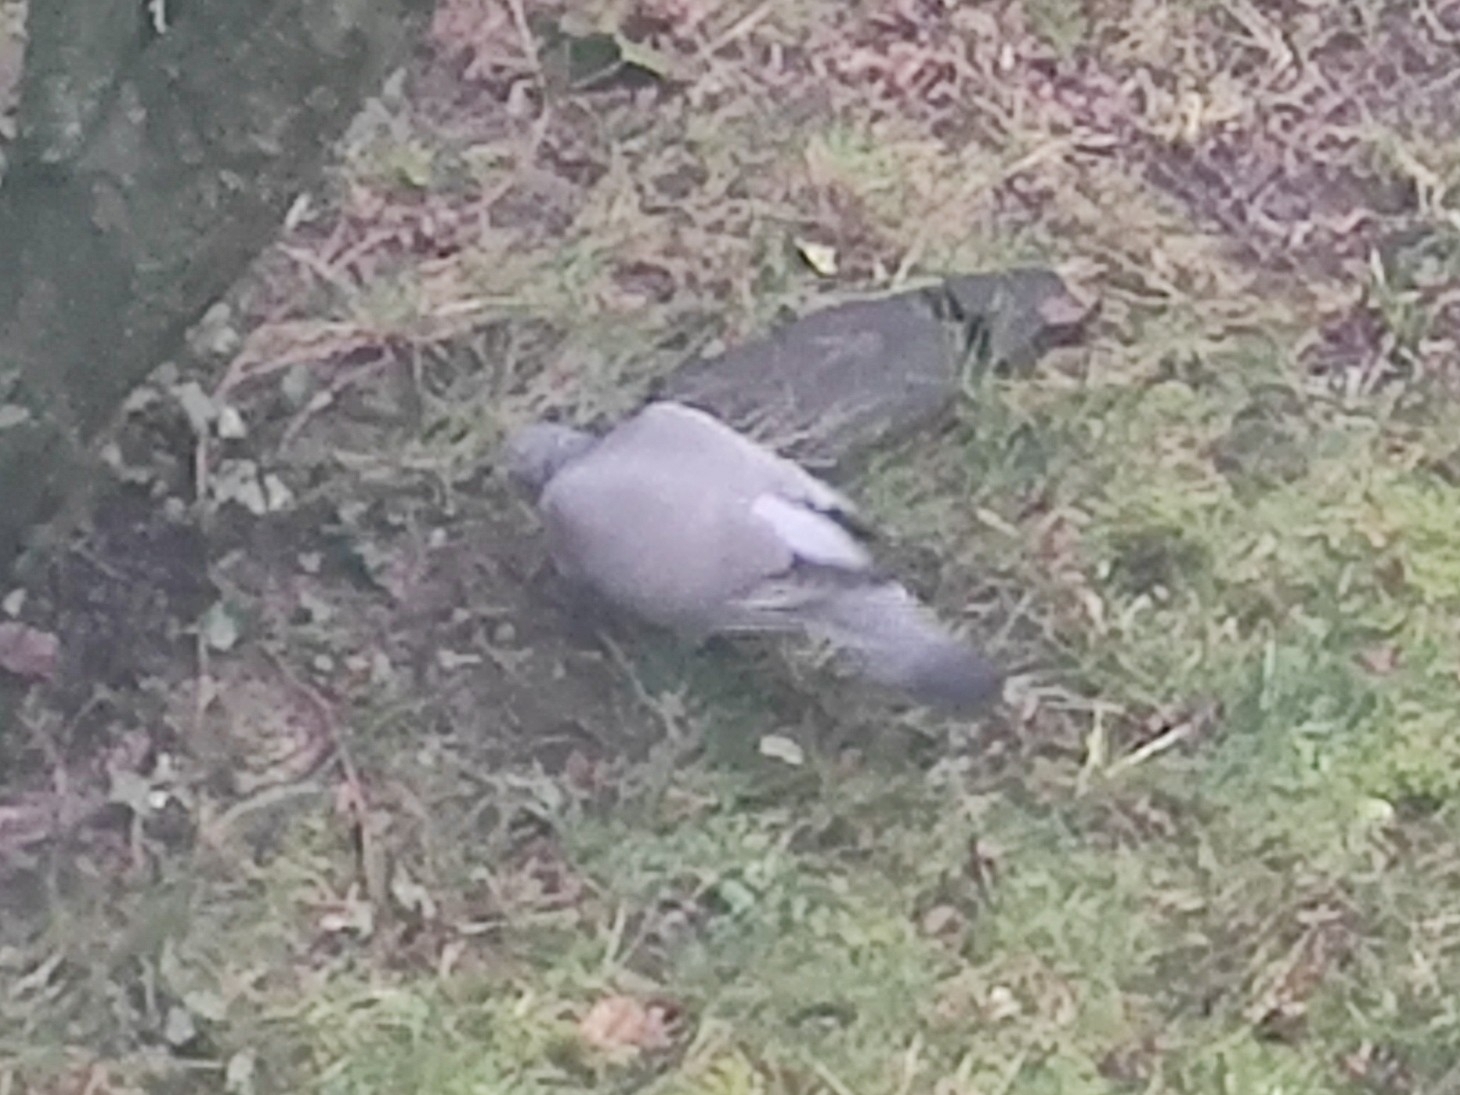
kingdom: Animalia
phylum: Chordata
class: Aves
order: Columbiformes
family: Columbidae
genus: Columba
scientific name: Columba palumbus
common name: Common wood pigeon
